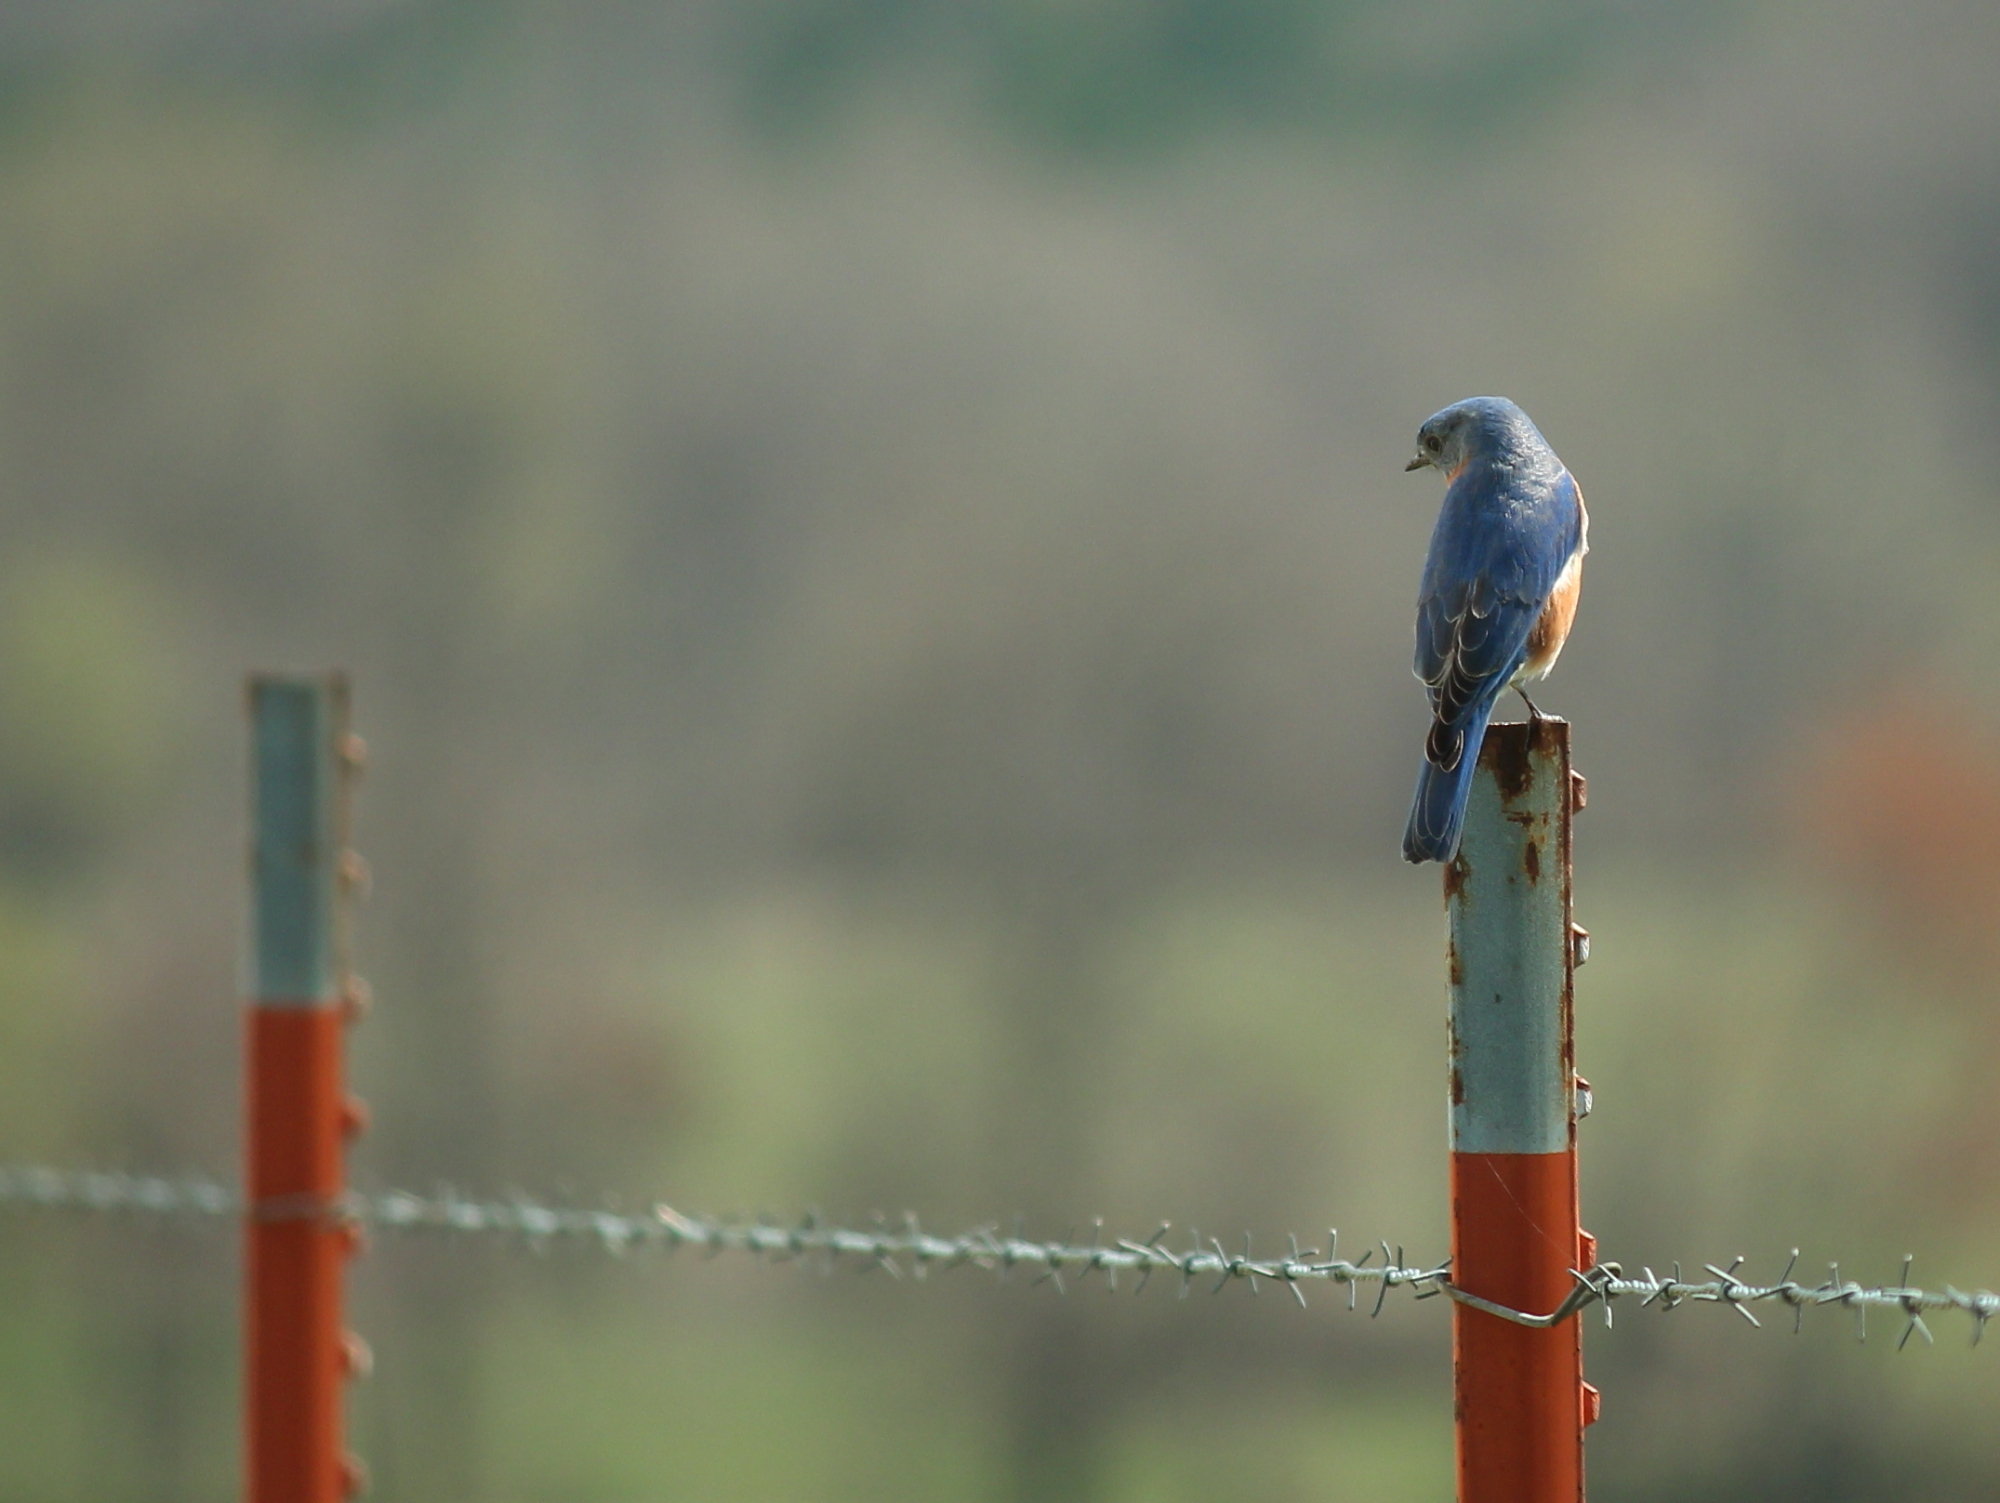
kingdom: Animalia
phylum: Chordata
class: Aves
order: Passeriformes
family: Turdidae
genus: Sialia
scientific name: Sialia sialis
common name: Eastern bluebird
